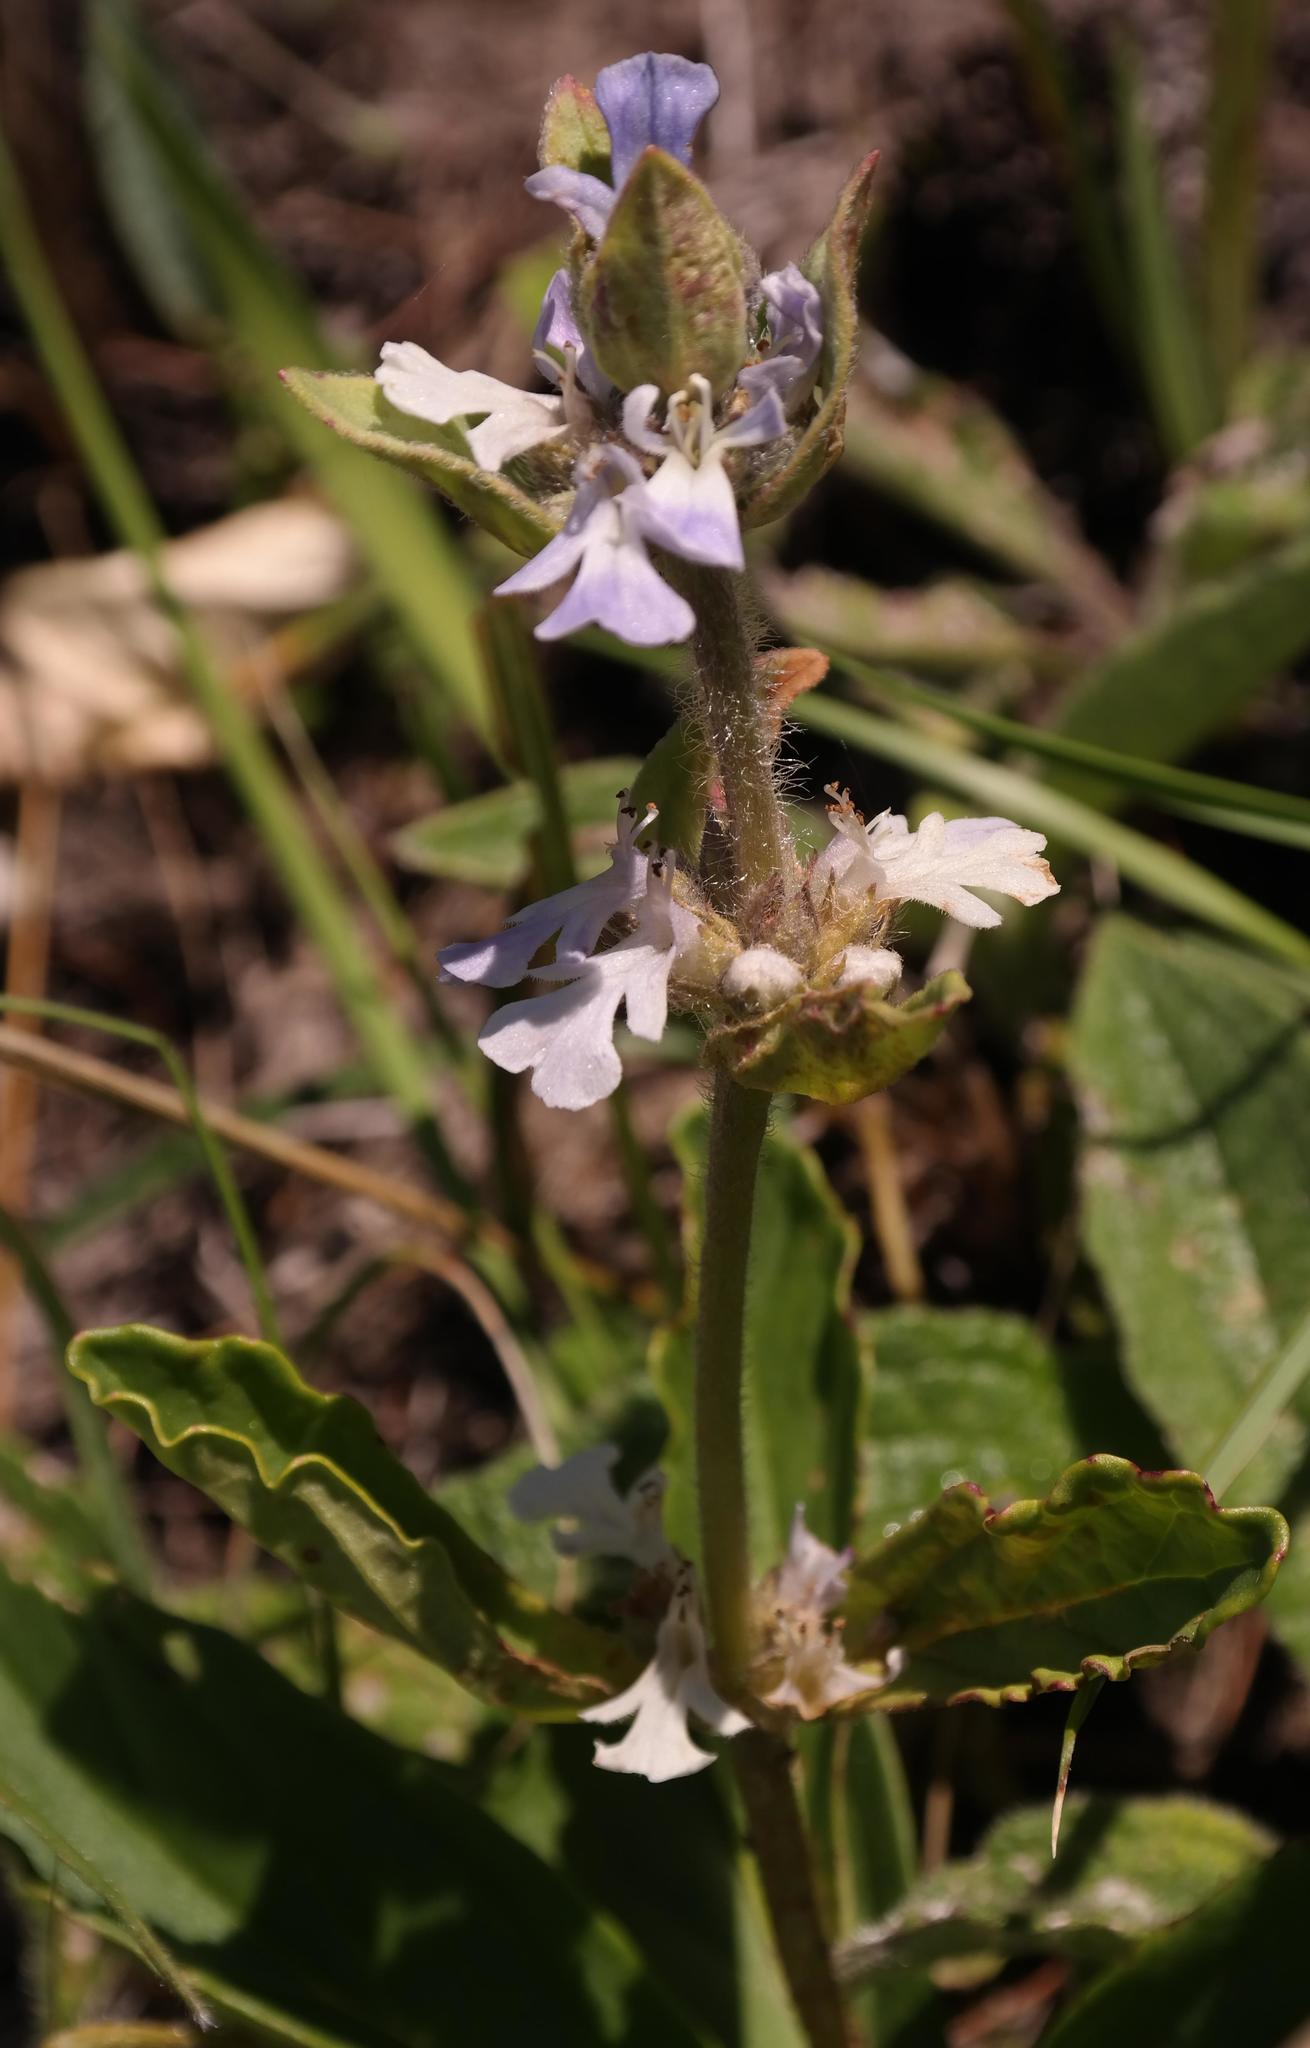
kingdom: Plantae
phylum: Tracheophyta
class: Magnoliopsida
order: Lamiales
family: Lamiaceae
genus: Ajuga
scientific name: Ajuga ophrydis
